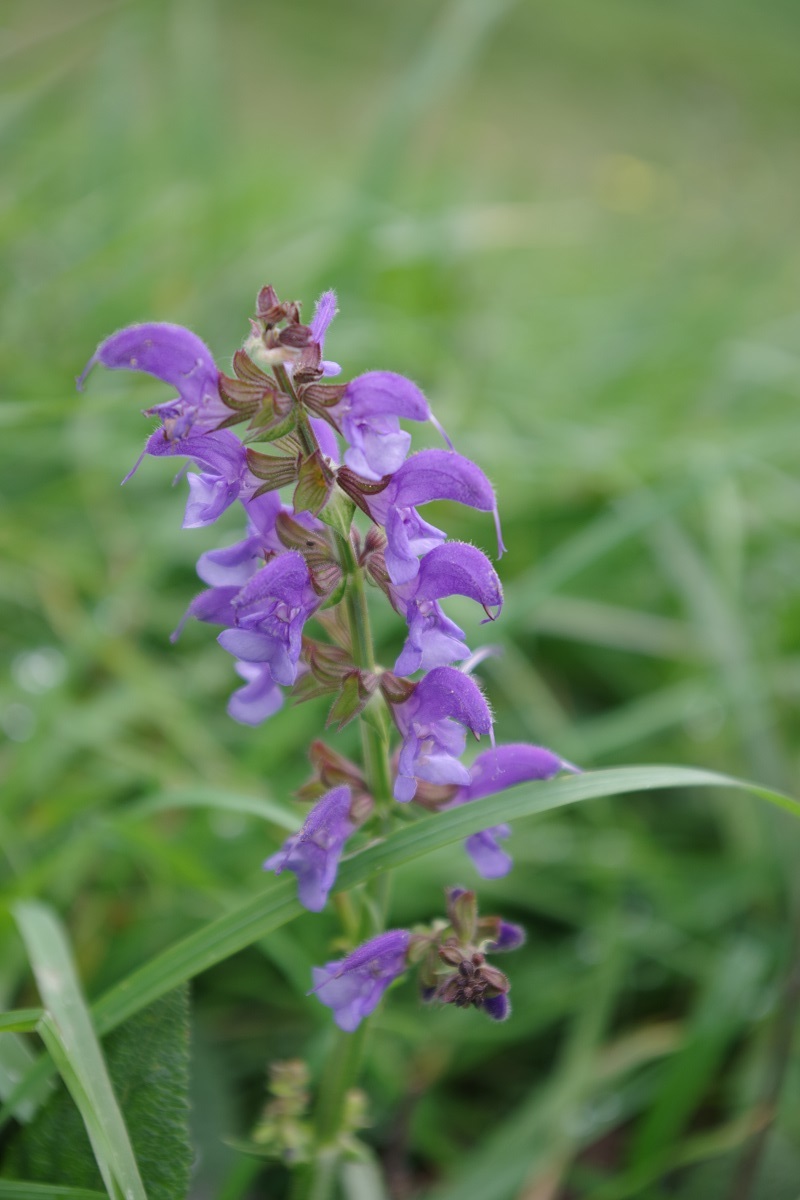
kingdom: Plantae
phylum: Tracheophyta
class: Magnoliopsida
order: Lamiales
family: Lamiaceae
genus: Salvia
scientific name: Salvia pratensis
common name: Meadow sage
